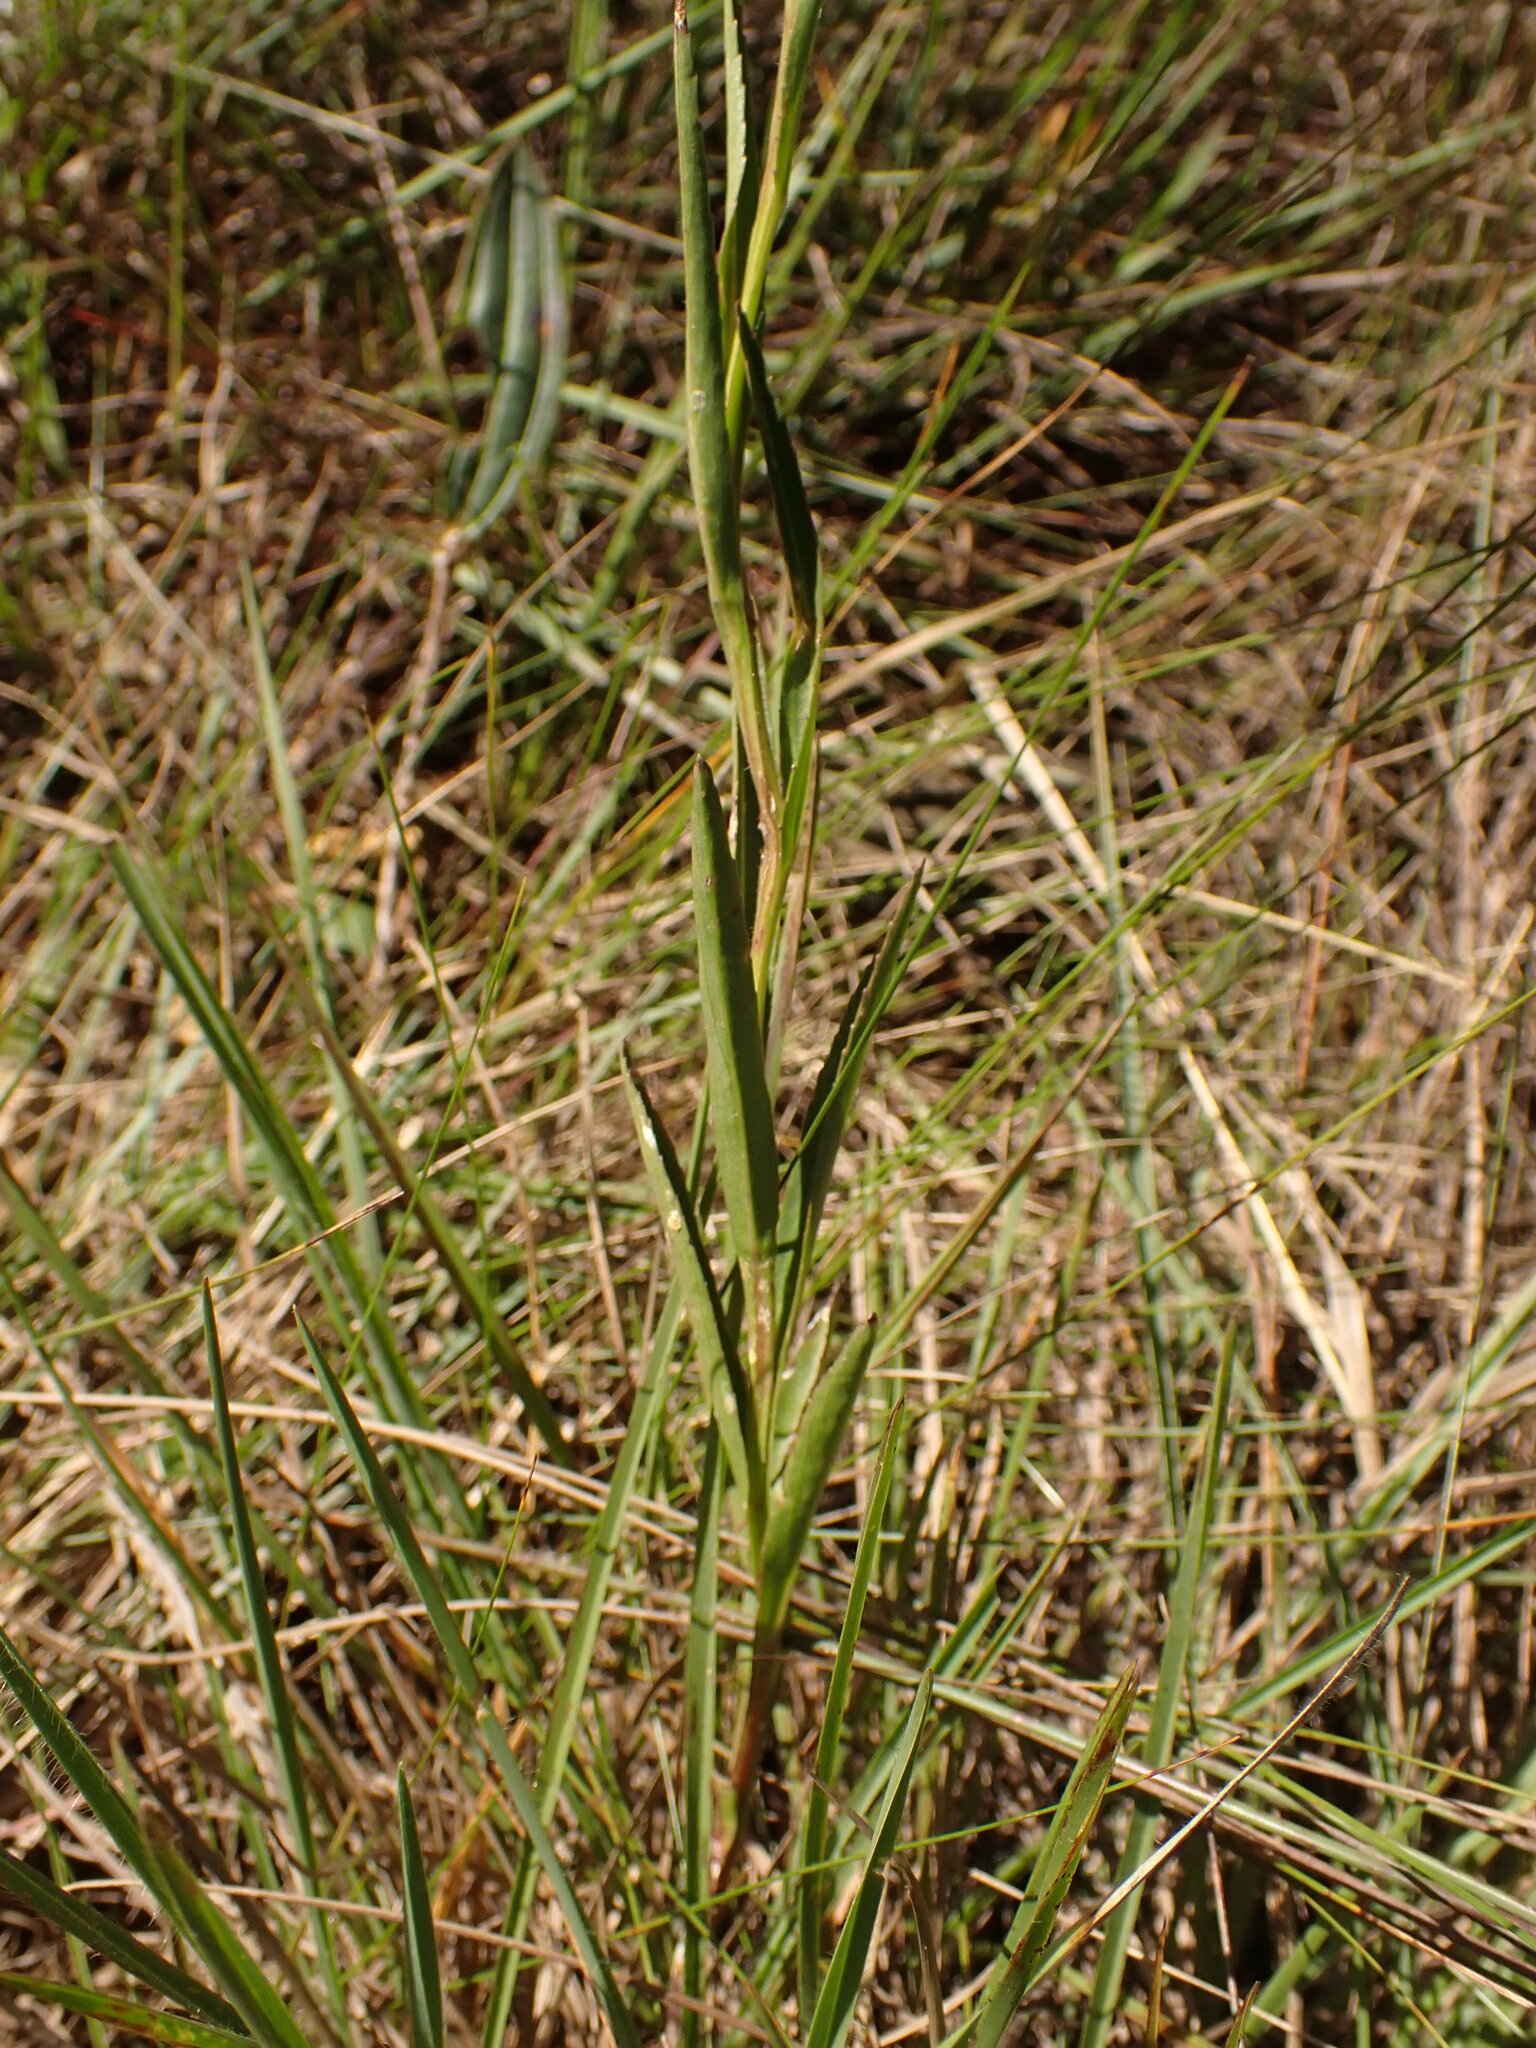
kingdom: Plantae
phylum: Tracheophyta
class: Magnoliopsida
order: Asterales
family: Campanulaceae
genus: Lobelia
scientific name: Lobelia camporum
